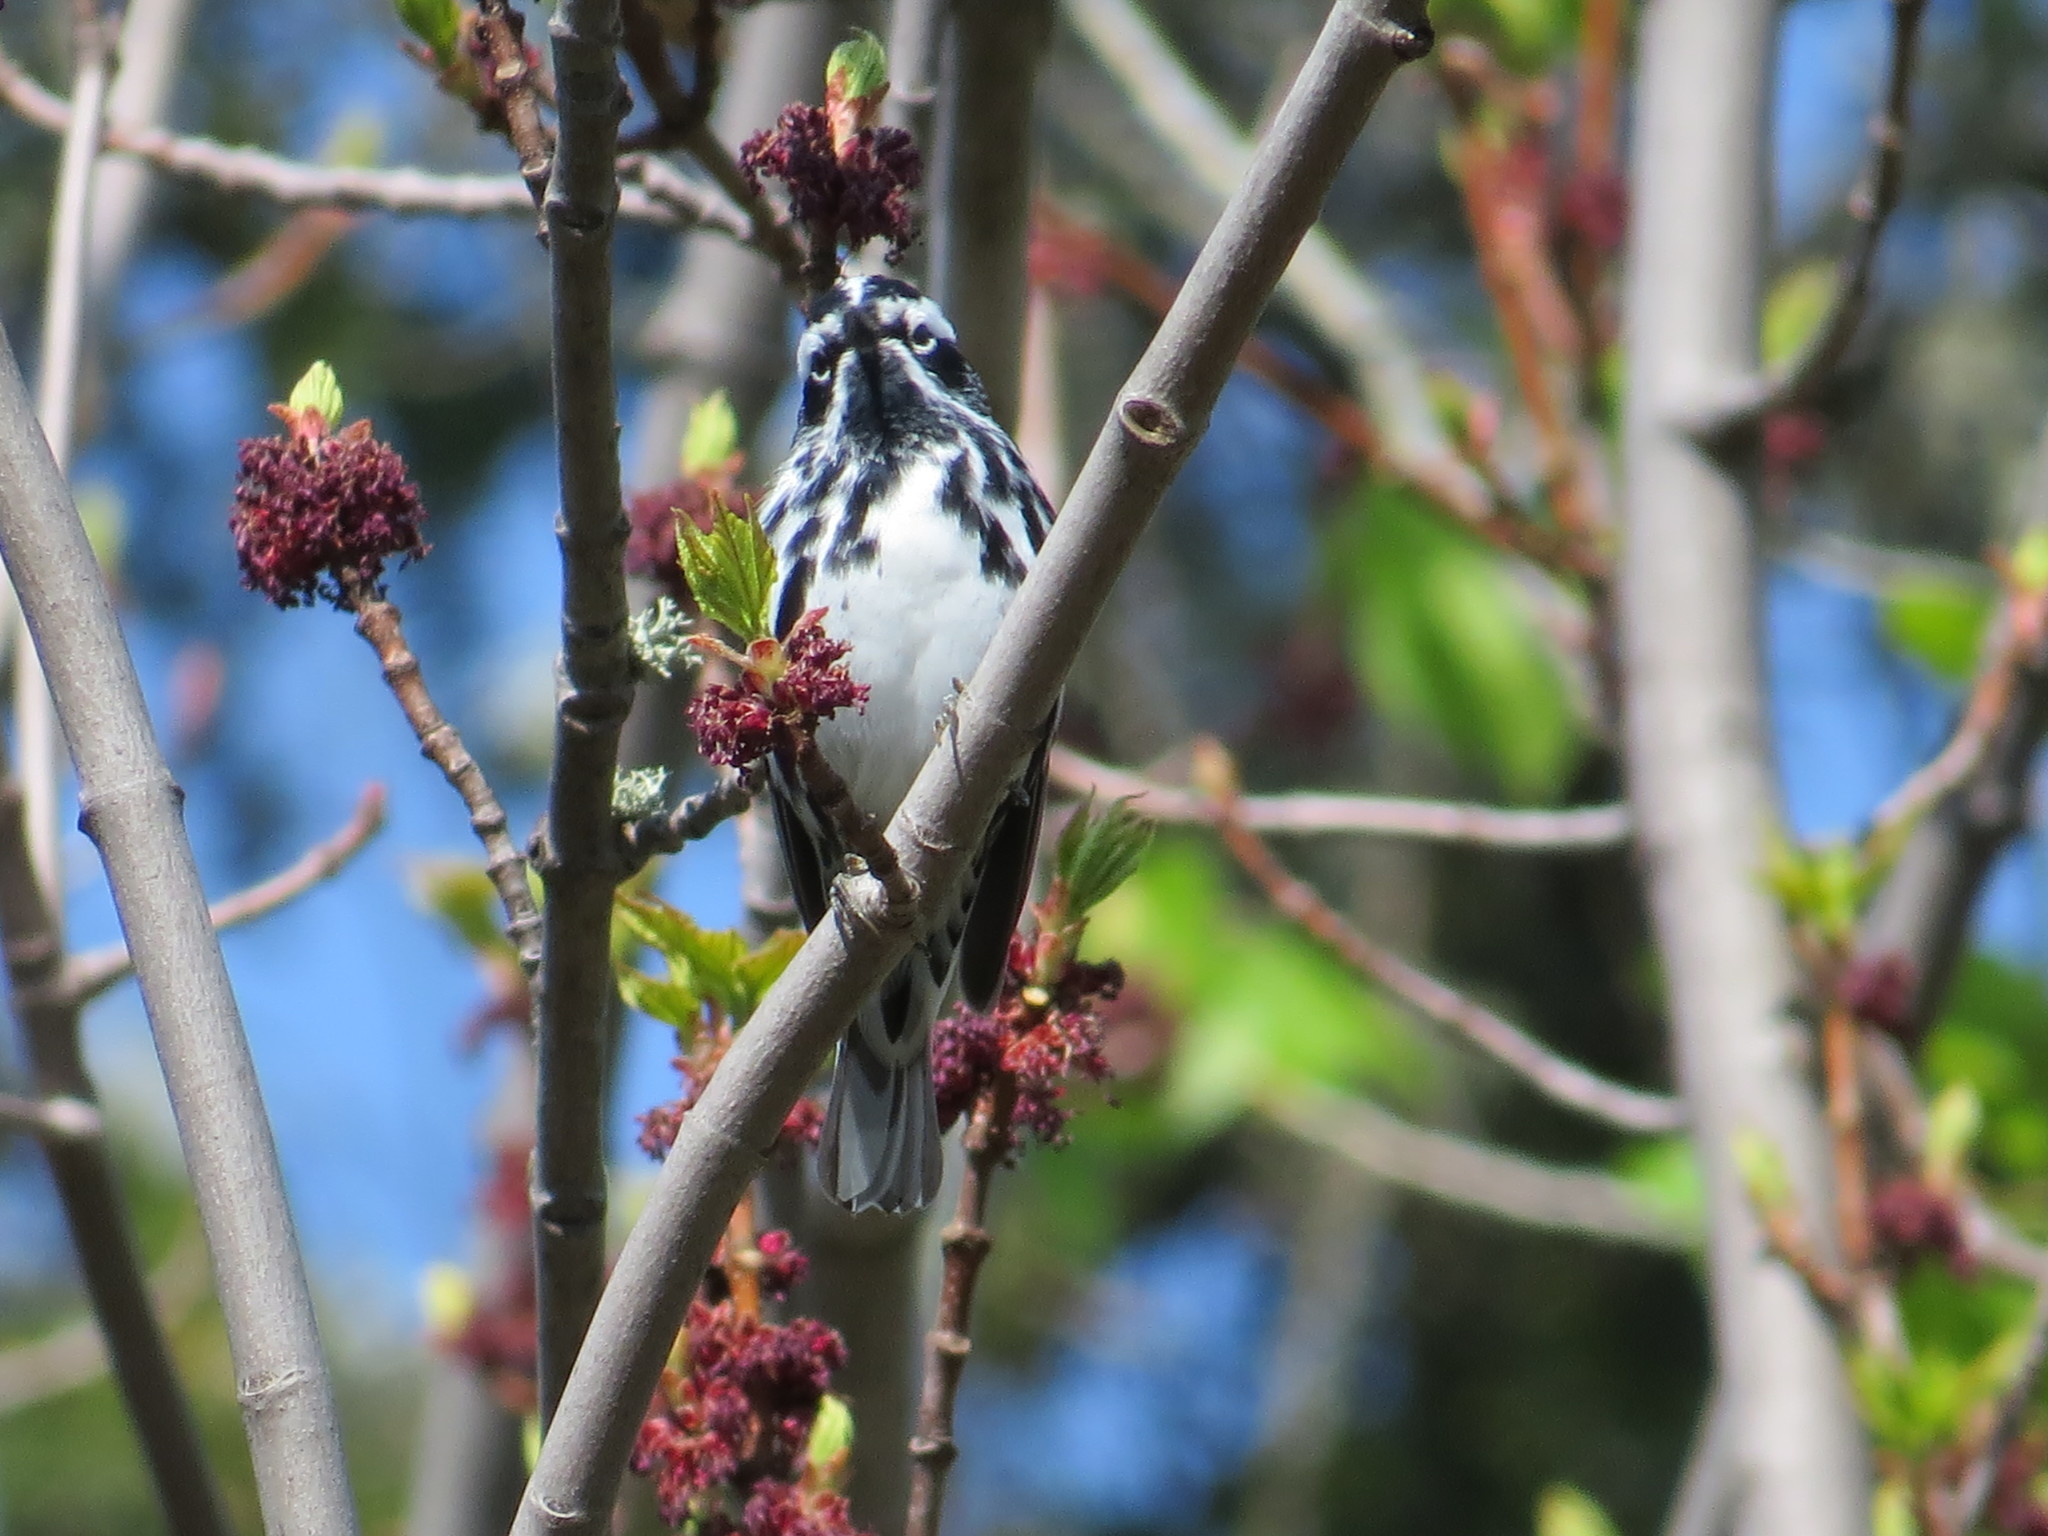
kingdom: Animalia
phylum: Chordata
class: Aves
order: Passeriformes
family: Parulidae
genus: Mniotilta
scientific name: Mniotilta varia
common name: Black-and-white warbler
